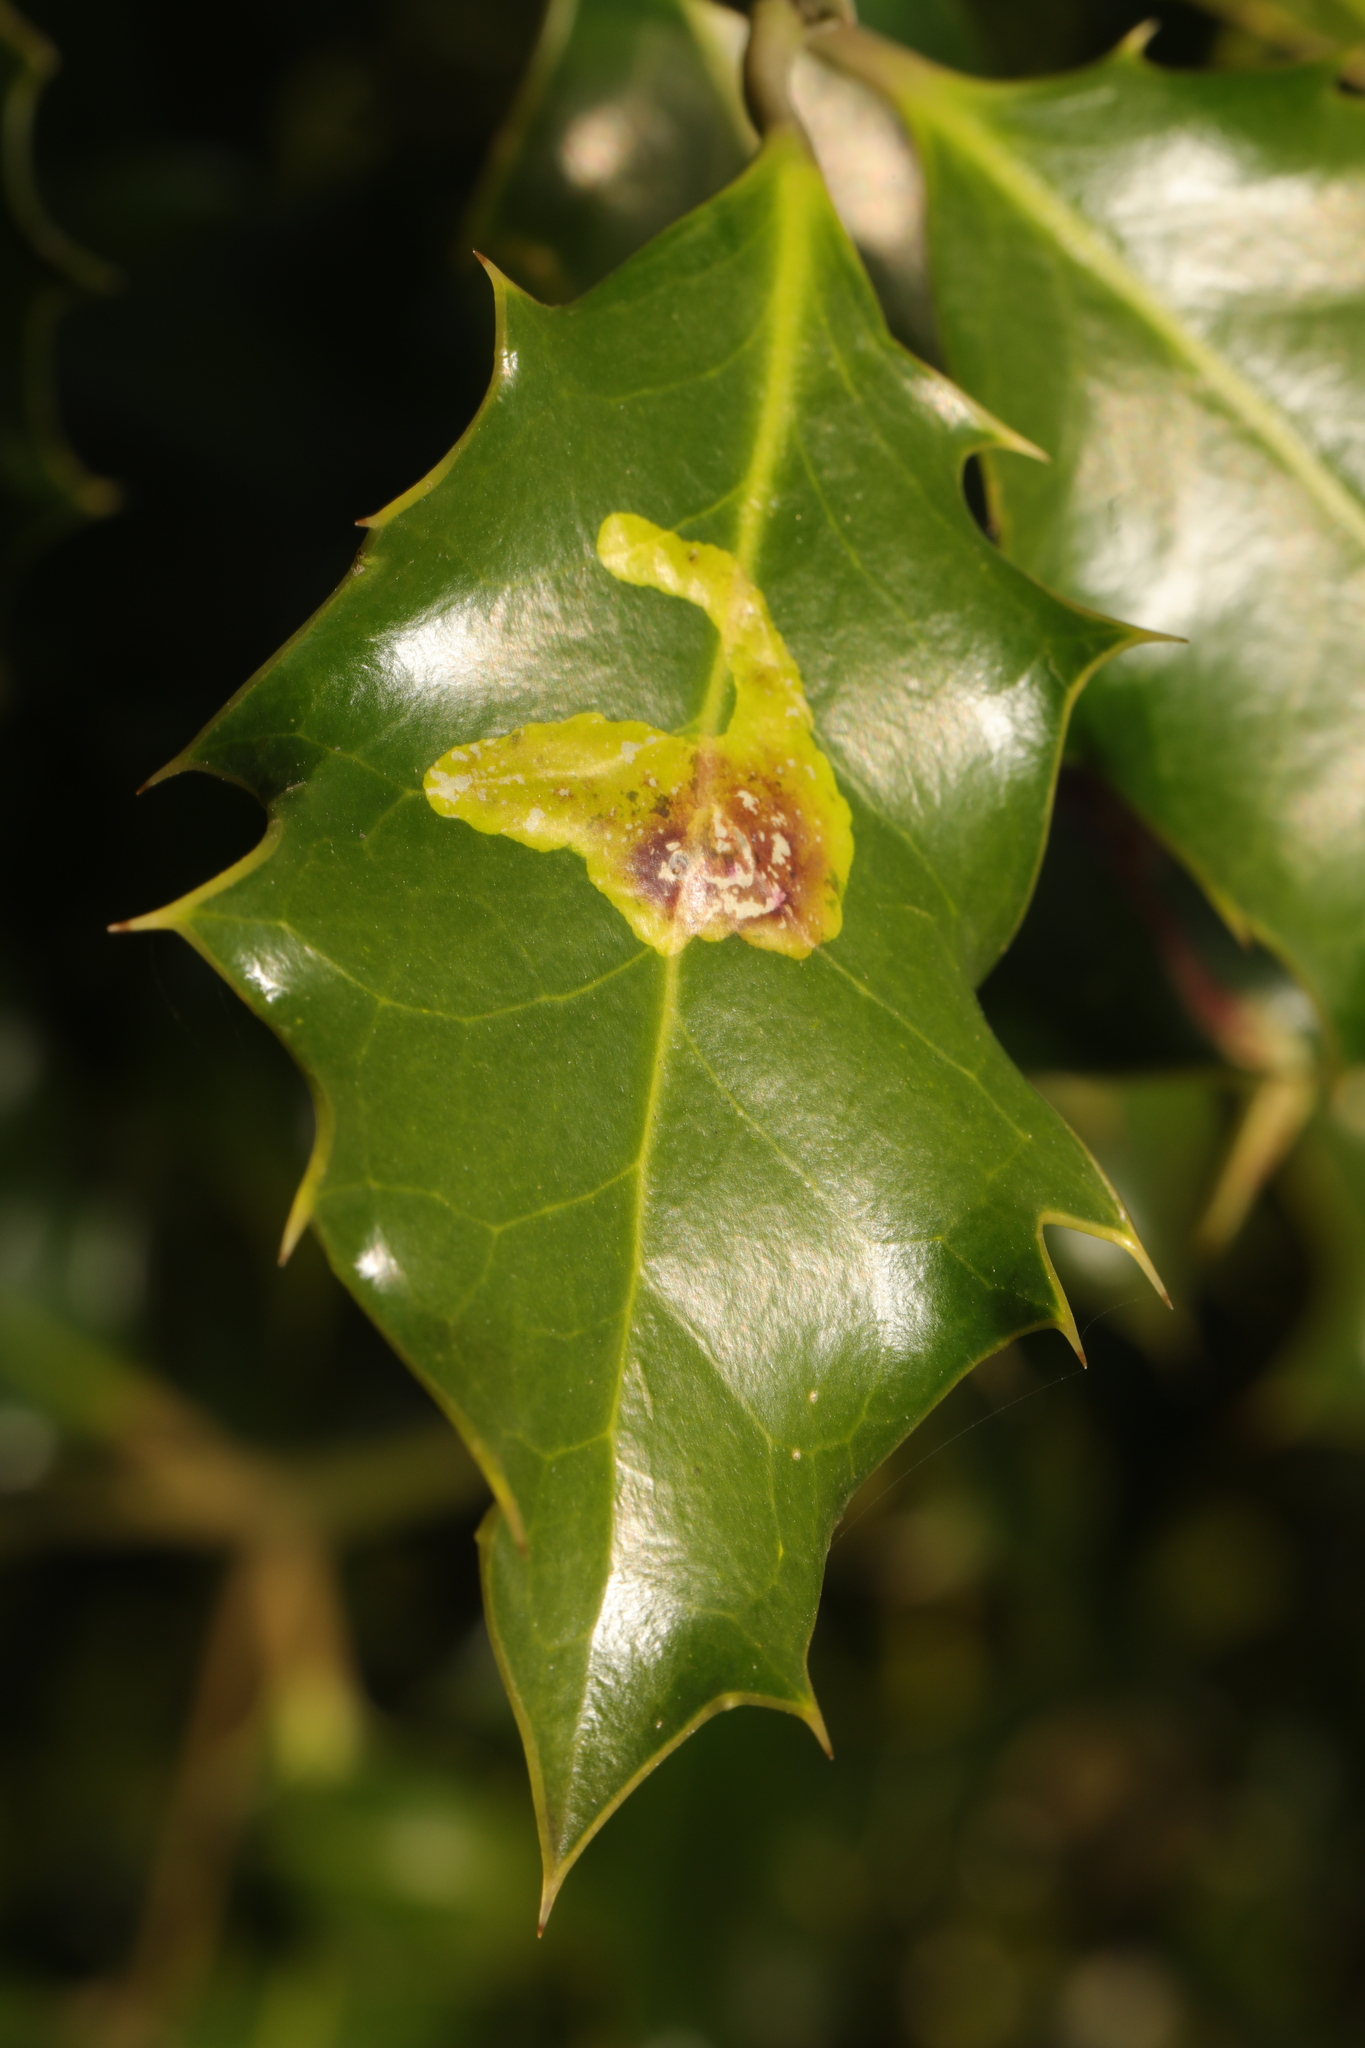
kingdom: Animalia
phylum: Arthropoda
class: Insecta
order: Diptera
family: Agromyzidae
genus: Phytomyza
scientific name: Phytomyza ilicis
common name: Holly leafminer
